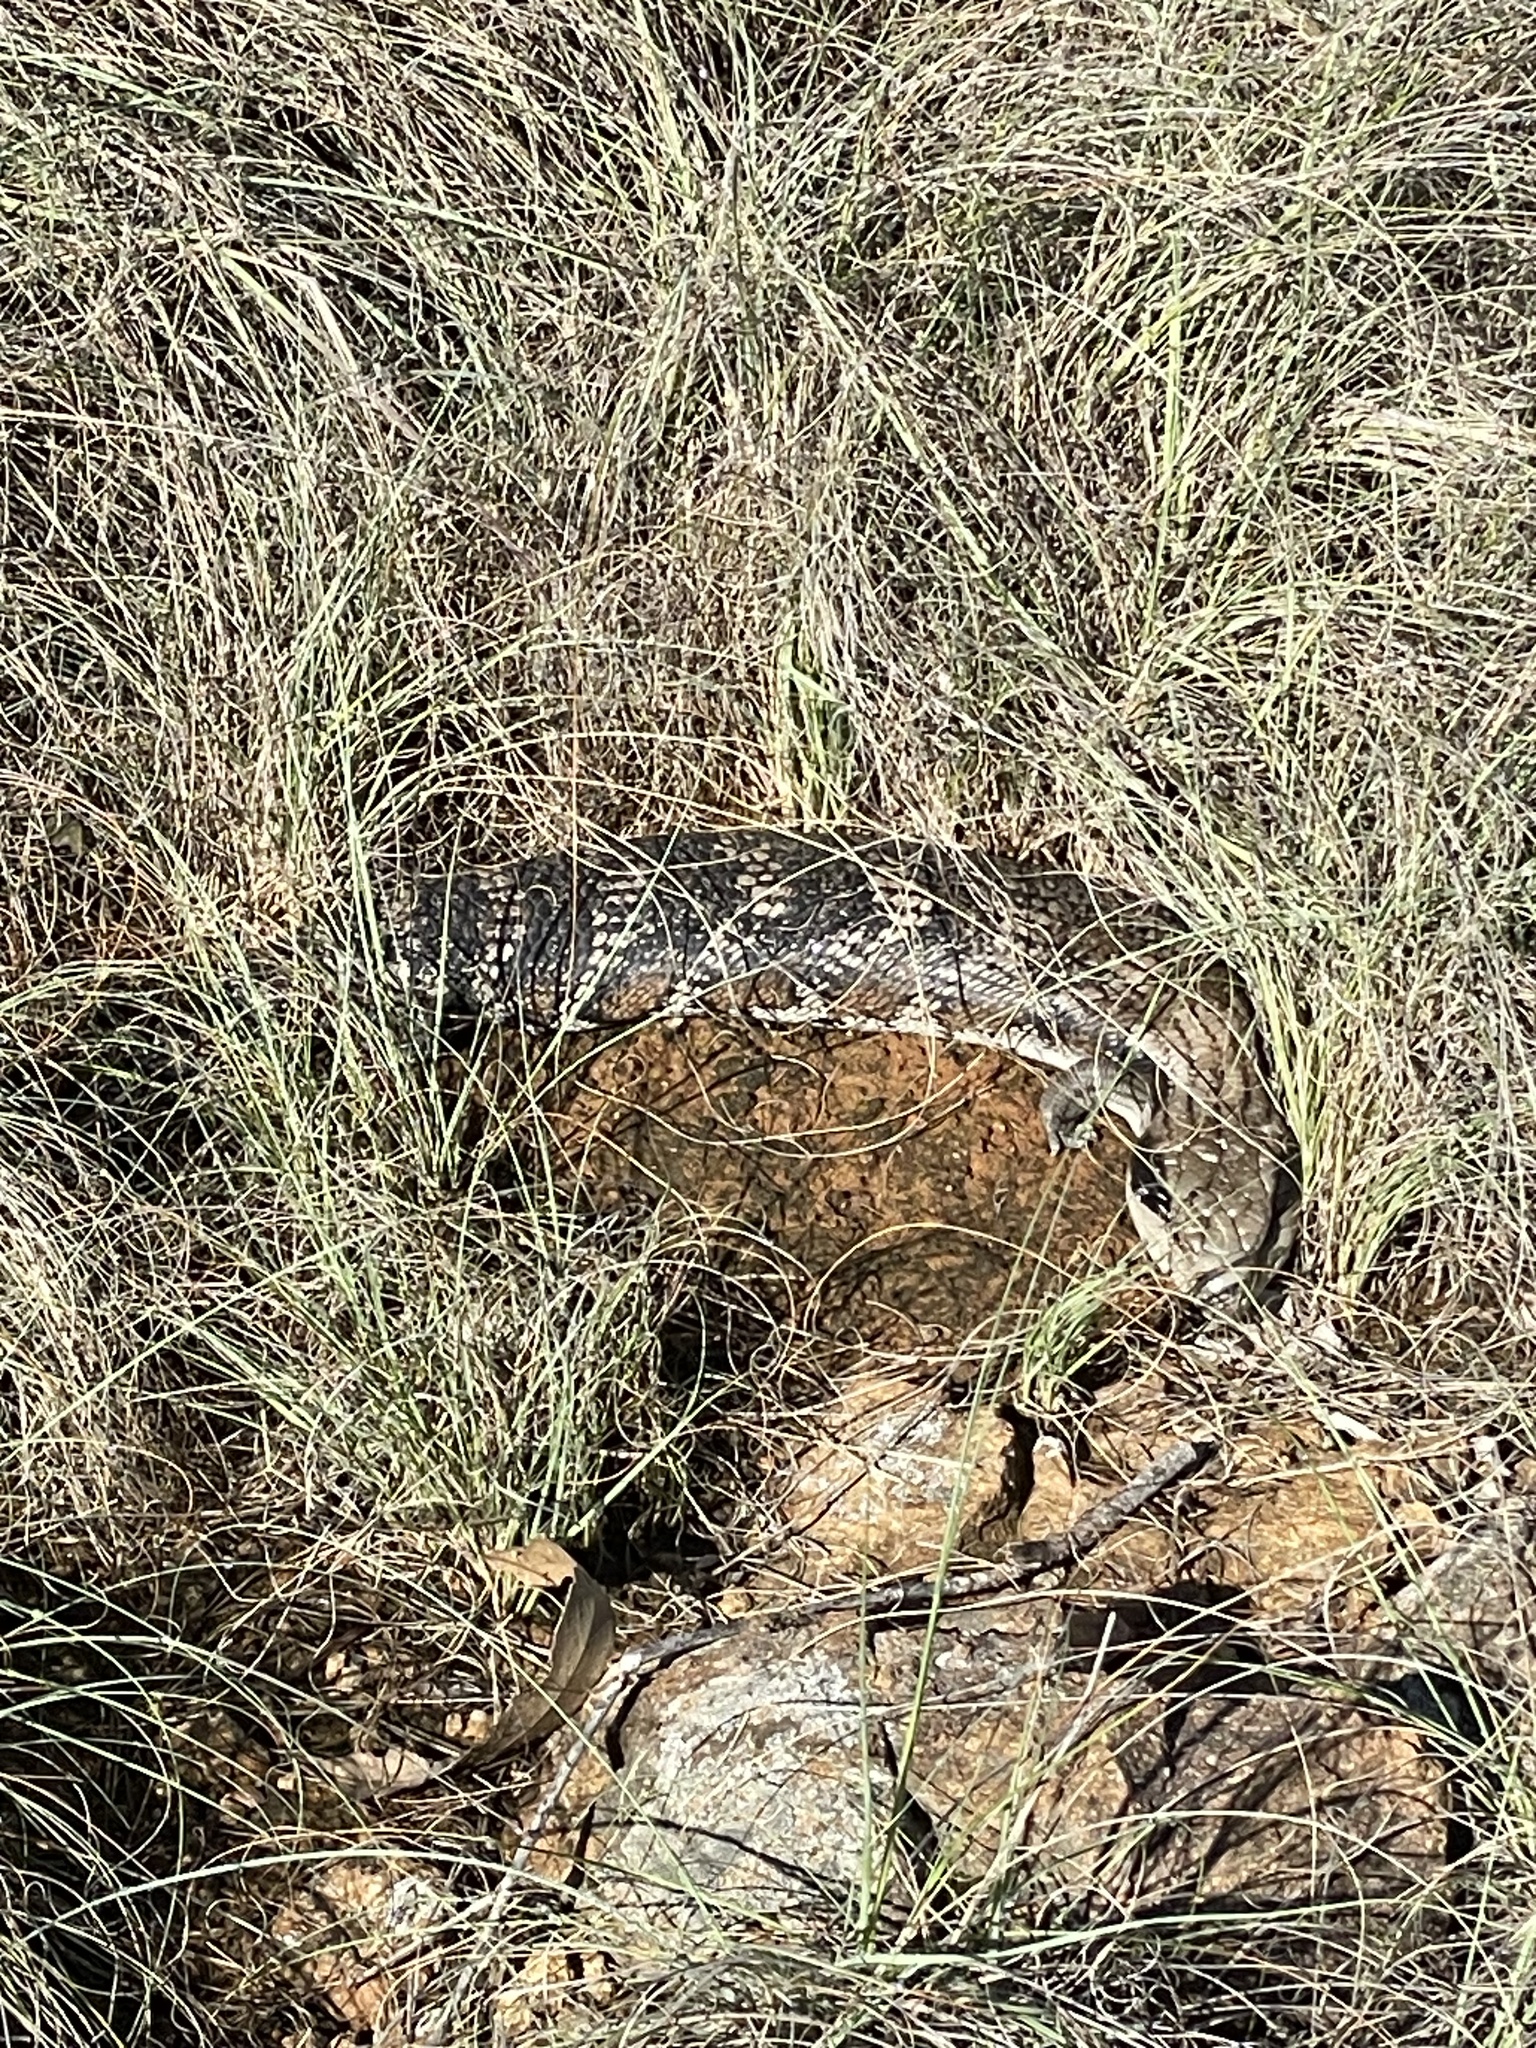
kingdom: Animalia
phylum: Chordata
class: Squamata
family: Scincidae
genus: Tiliqua
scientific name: Tiliqua scincoides
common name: Common bluetongue
